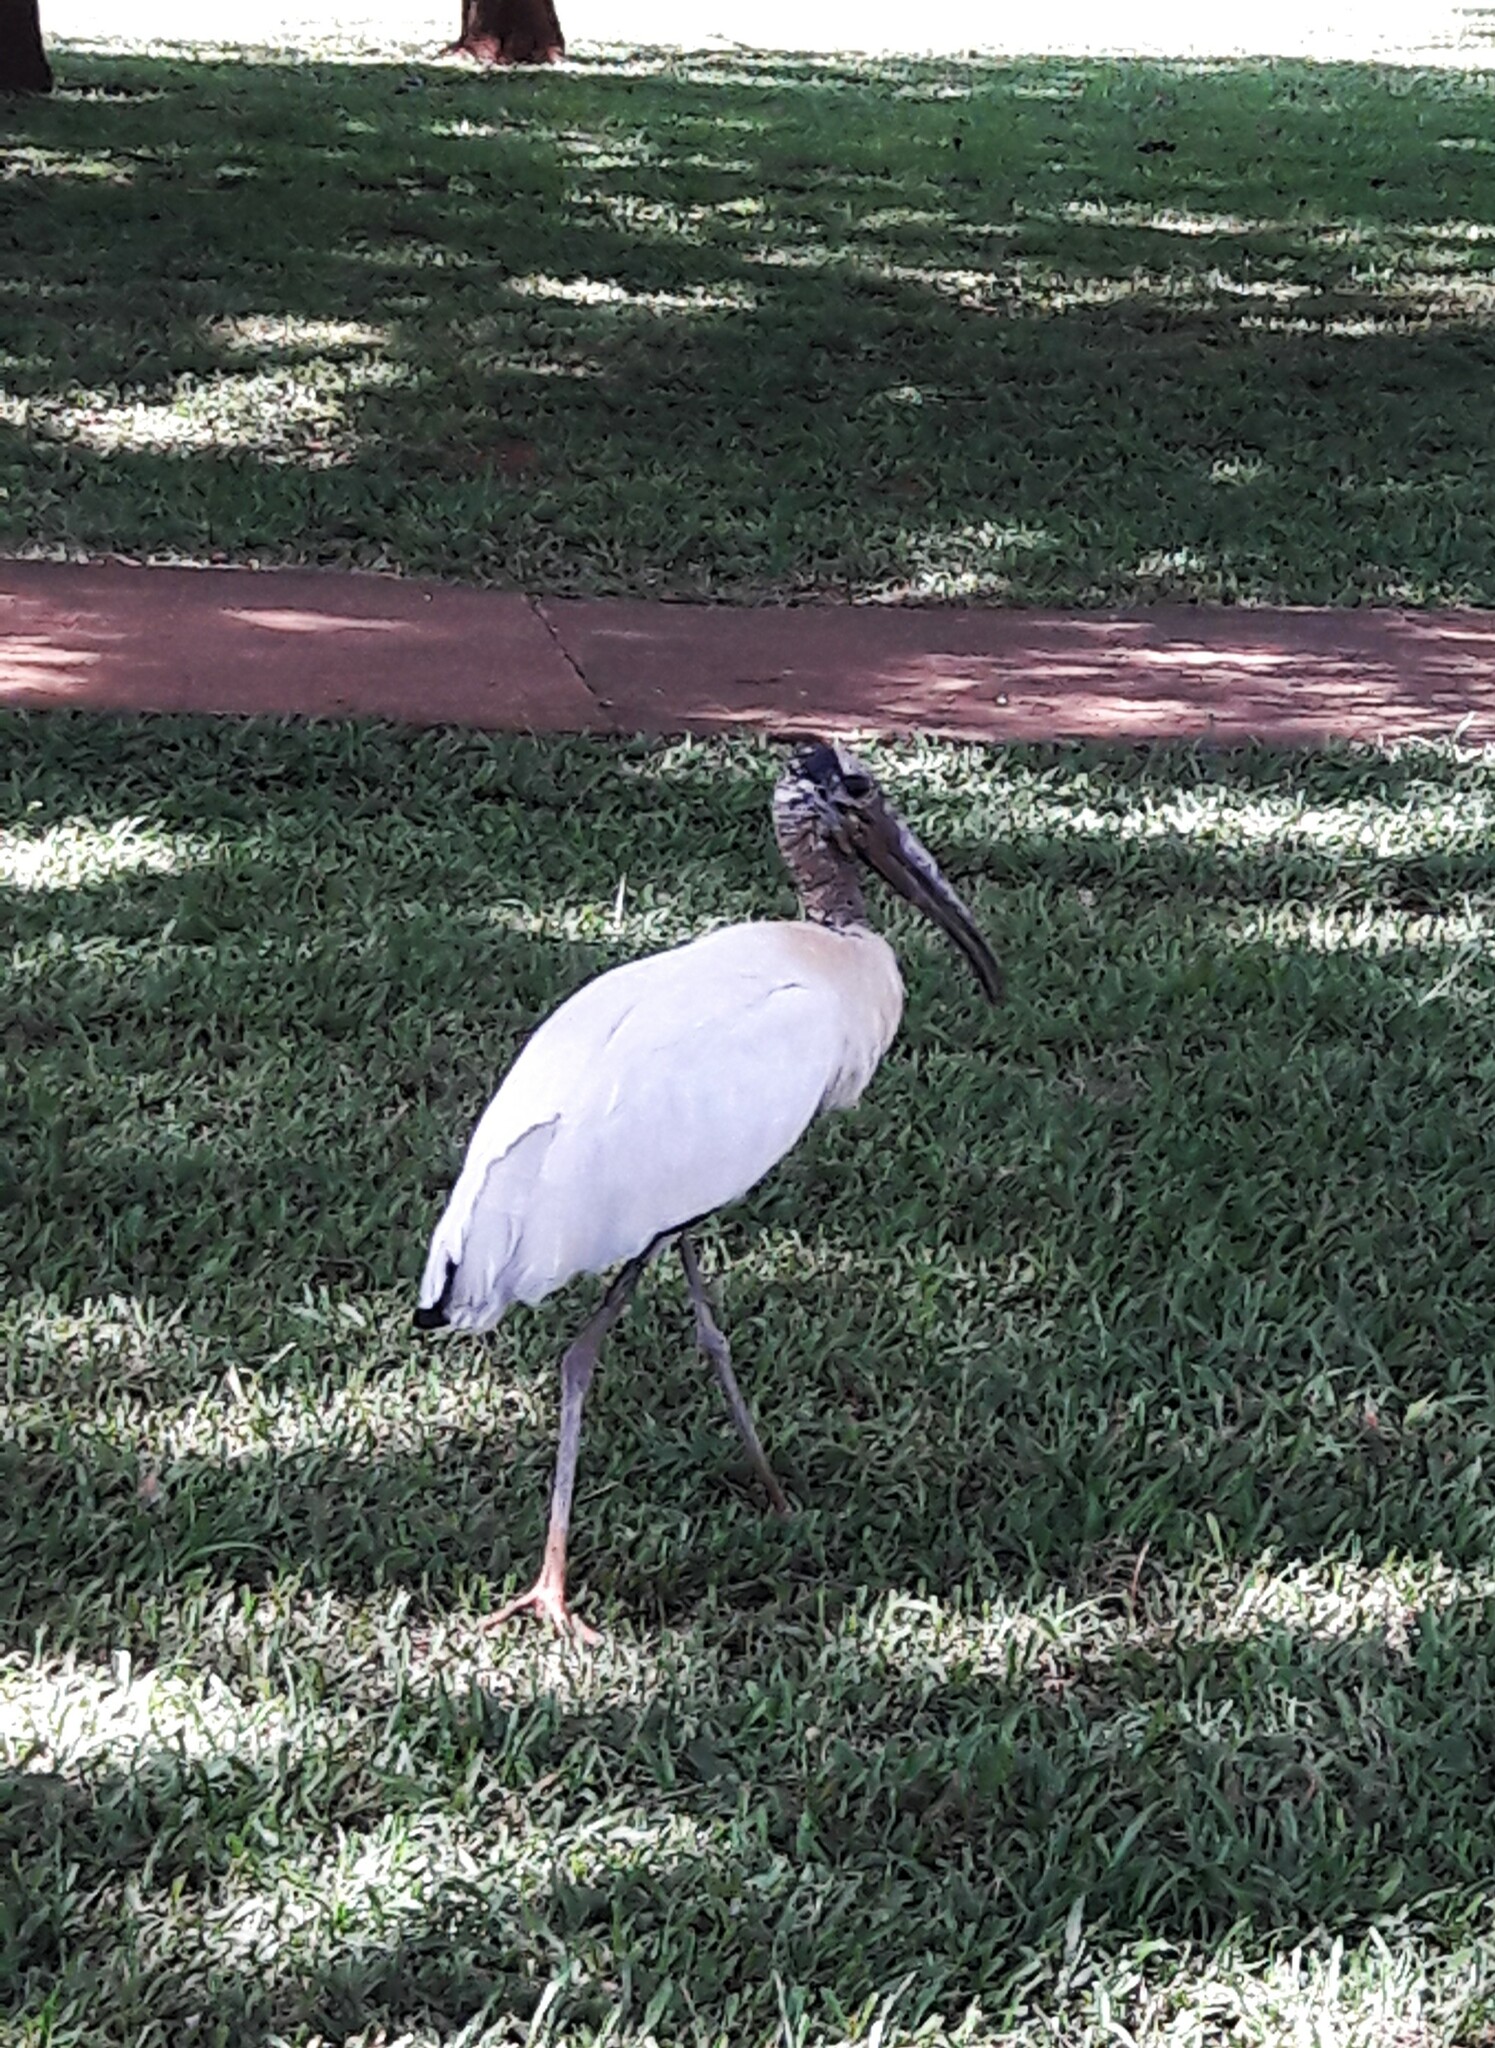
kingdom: Animalia
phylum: Chordata
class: Aves
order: Ciconiiformes
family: Ciconiidae
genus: Mycteria
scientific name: Mycteria americana
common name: Wood stork
